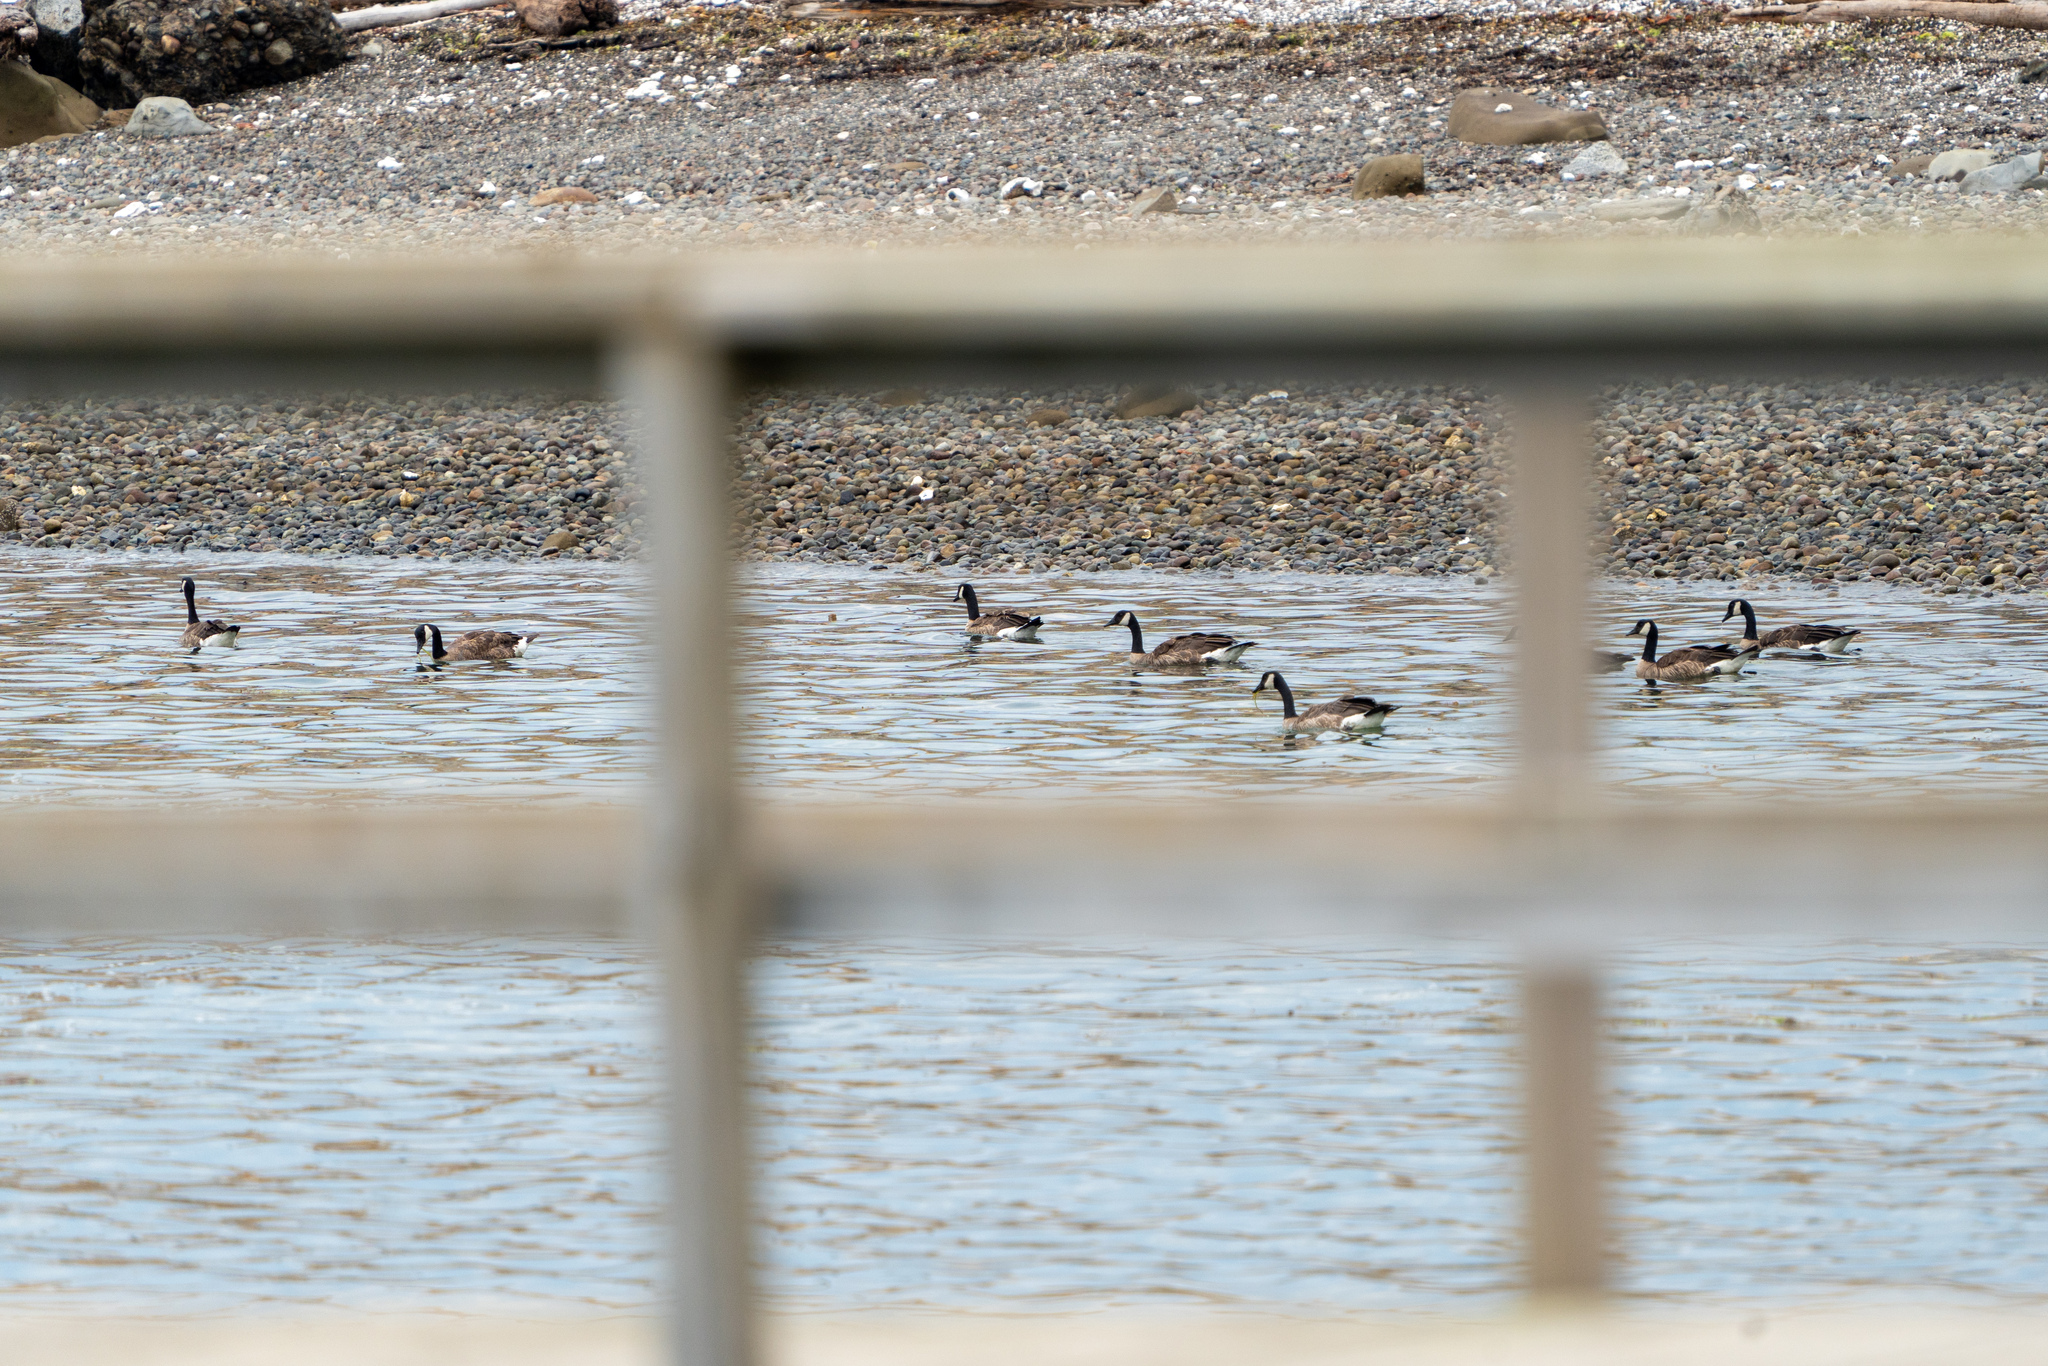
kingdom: Animalia
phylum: Chordata
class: Aves
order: Anseriformes
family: Anatidae
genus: Branta
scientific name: Branta canadensis
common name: Canada goose
